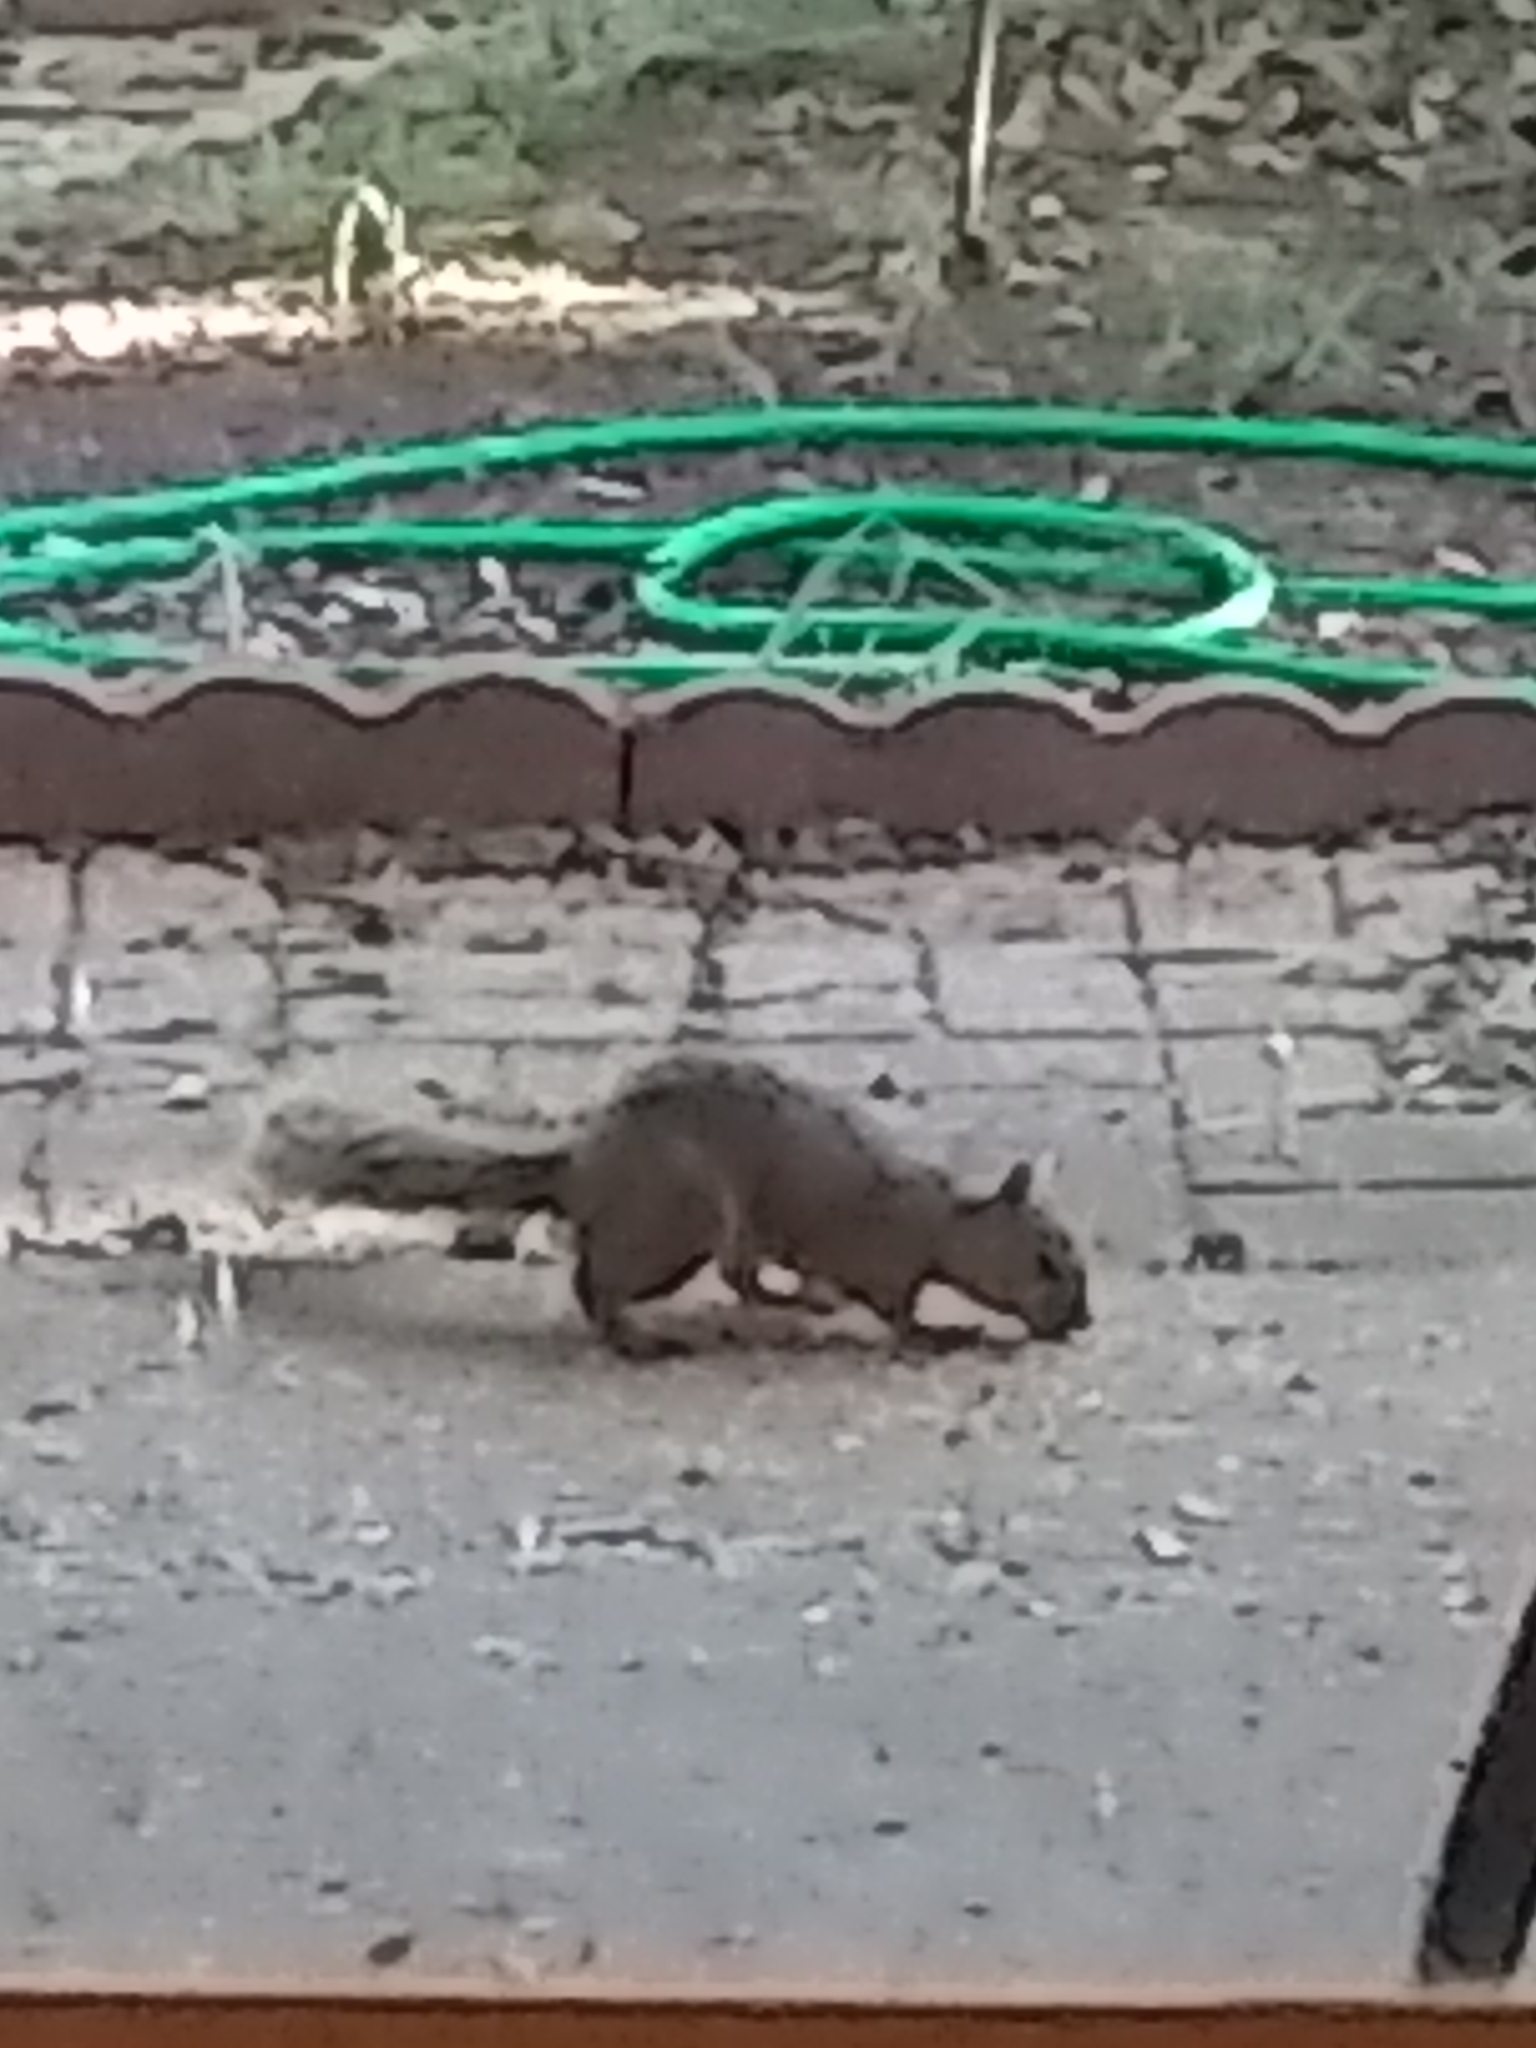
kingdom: Animalia
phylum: Chordata
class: Mammalia
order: Rodentia
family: Sciuridae
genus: Sciurus
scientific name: Sciurus niger
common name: Fox squirrel
